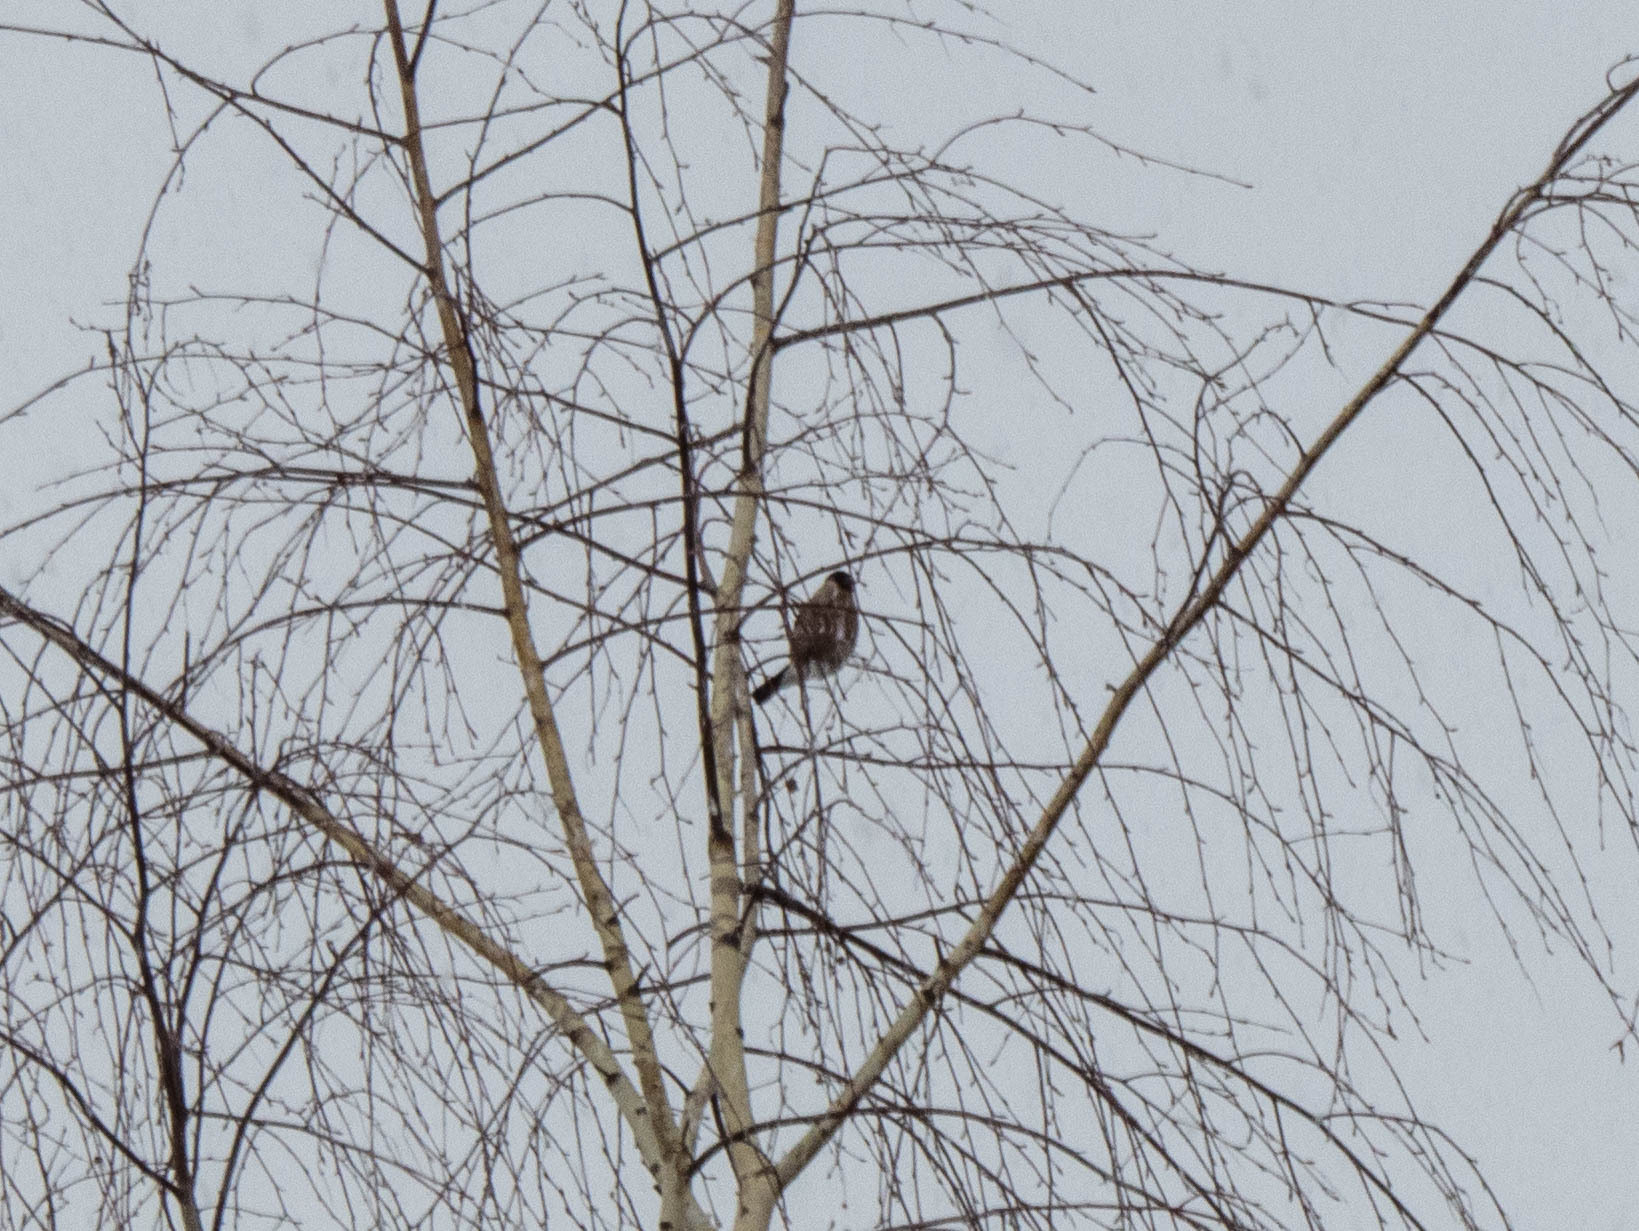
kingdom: Animalia
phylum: Chordata
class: Aves
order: Passeriformes
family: Fringillidae
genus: Pyrrhula
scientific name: Pyrrhula pyrrhula
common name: Eurasian bullfinch
